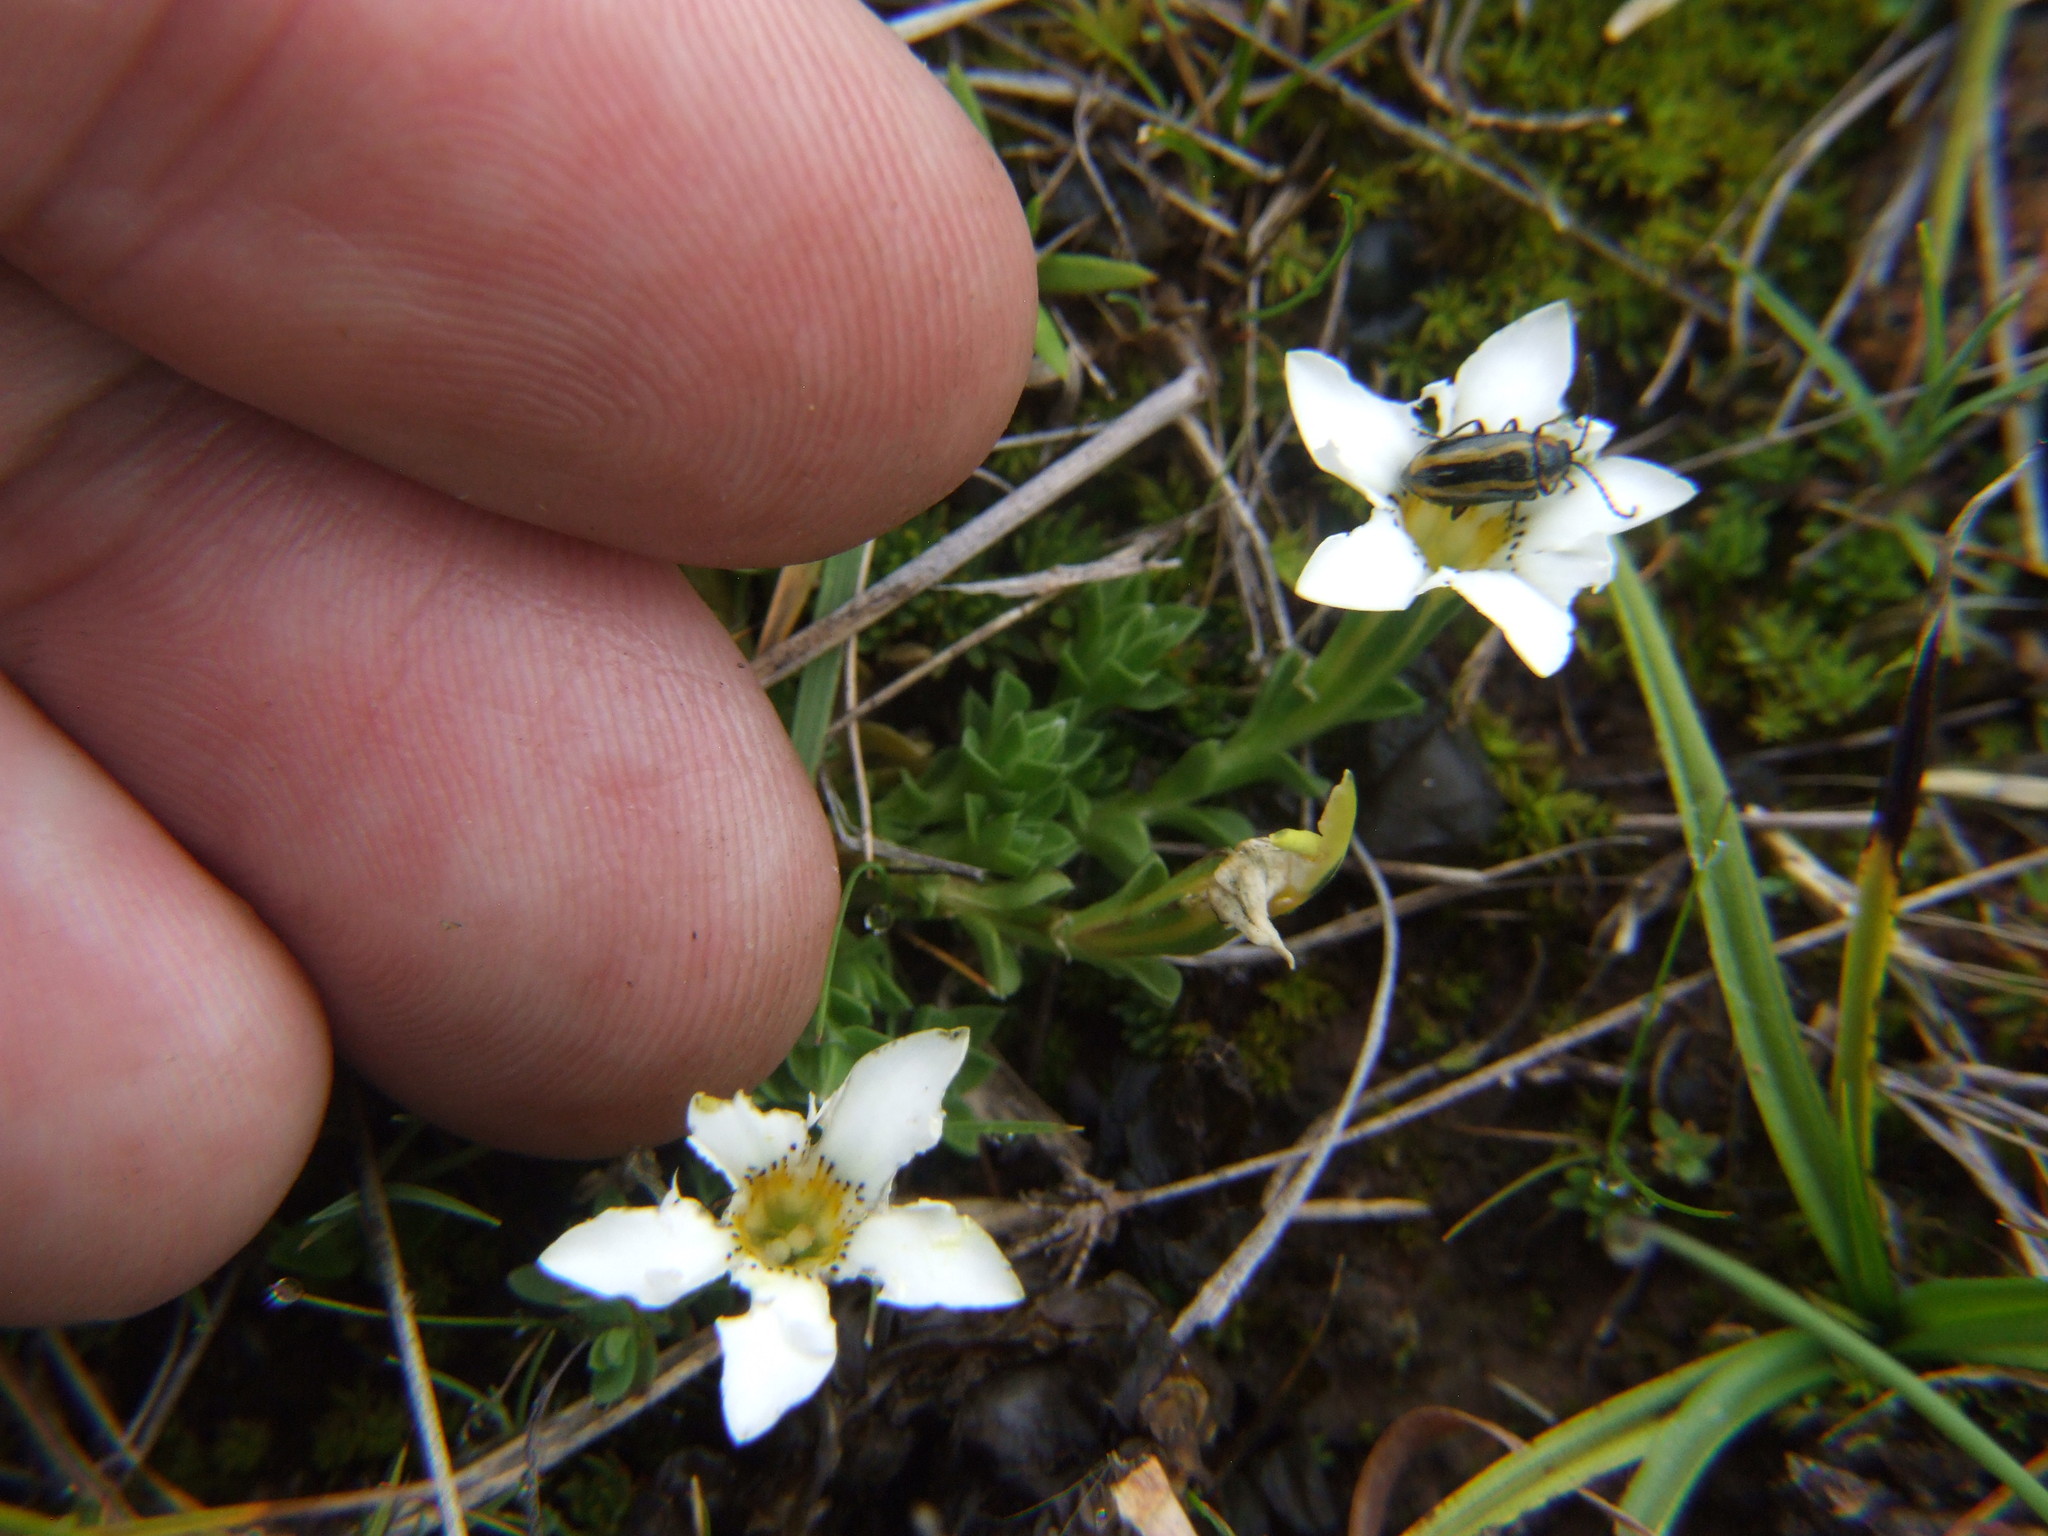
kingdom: Plantae
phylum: Tracheophyta
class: Magnoliopsida
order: Gentianales
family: Gentianaceae
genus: Gentiana
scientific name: Gentiana sedifolia
